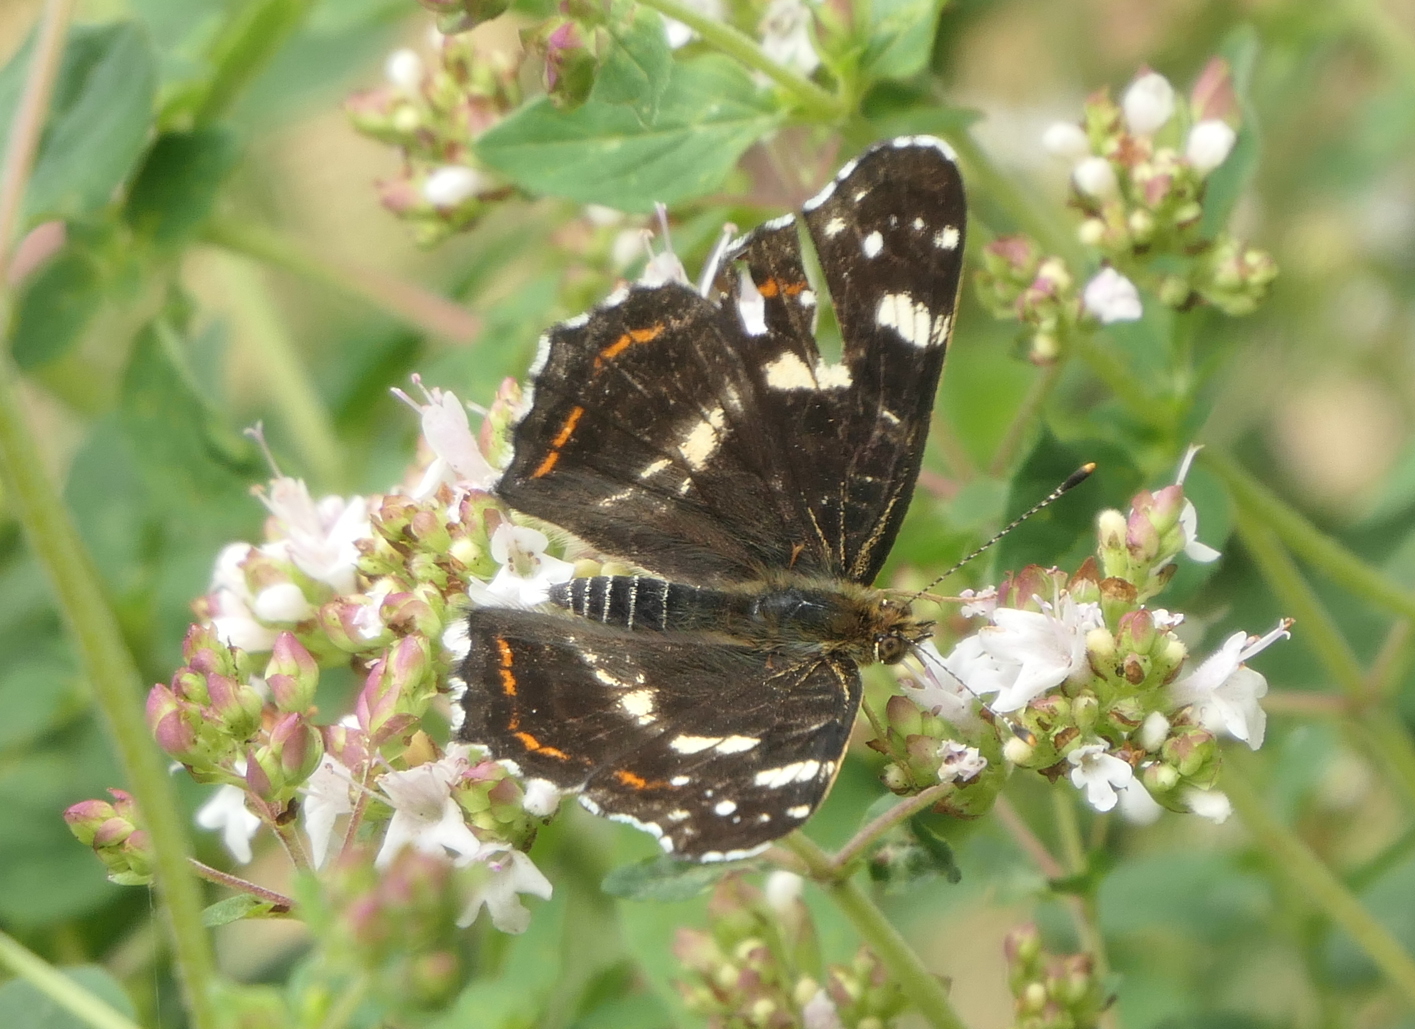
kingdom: Animalia
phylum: Arthropoda
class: Insecta
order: Lepidoptera
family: Nymphalidae
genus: Araschnia
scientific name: Araschnia levana
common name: Map butterfly
